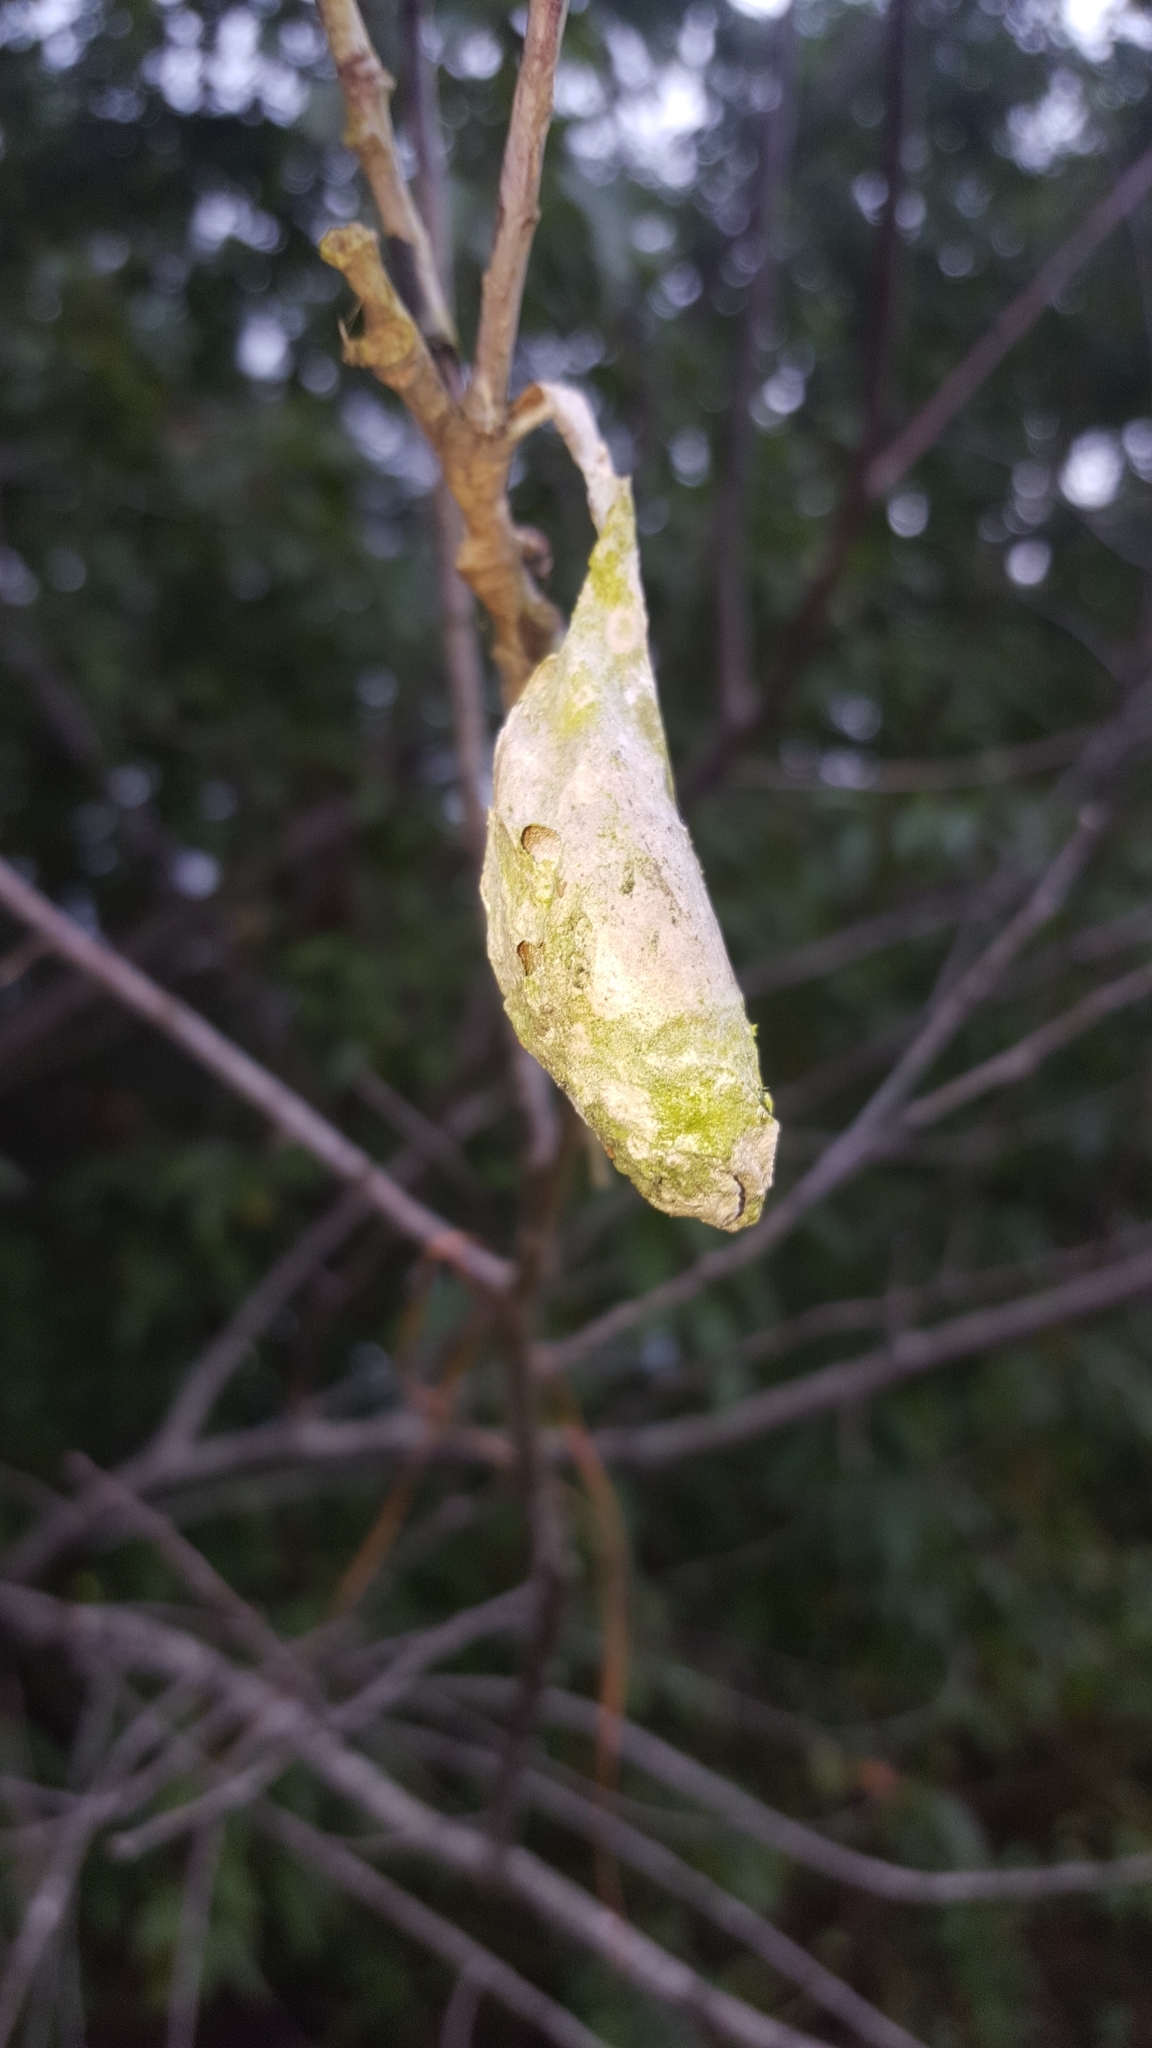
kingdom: Animalia
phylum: Arthropoda
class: Insecta
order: Lepidoptera
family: Saturniidae
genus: Callosamia
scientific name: Callosamia promethea
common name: Promethea silkmoth
